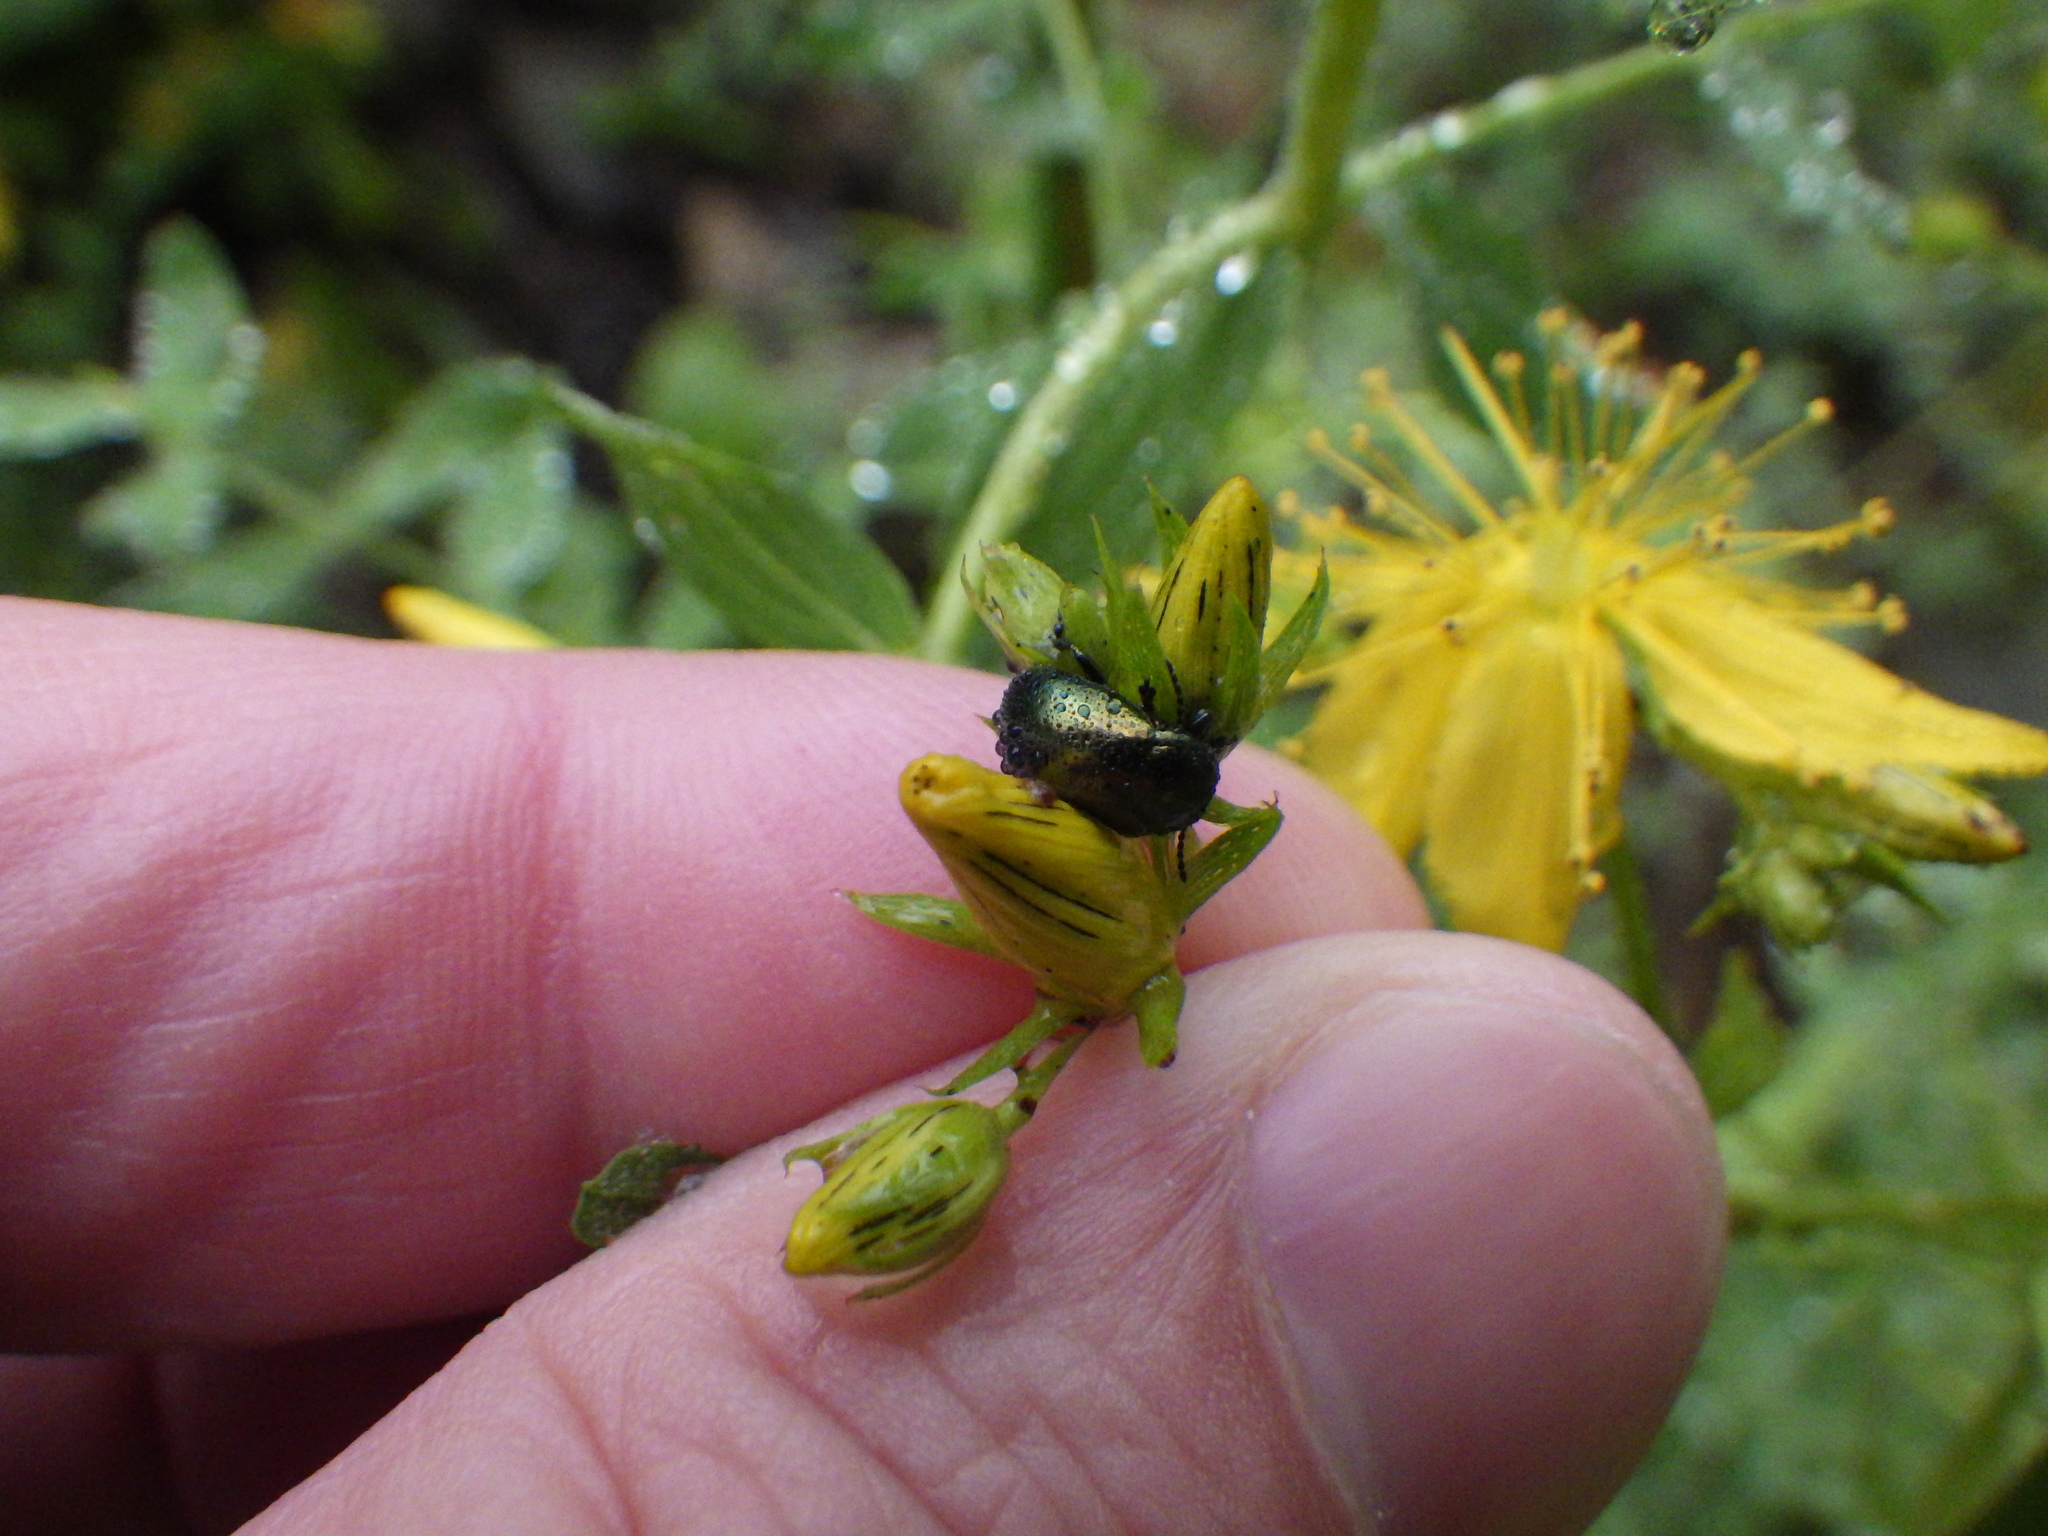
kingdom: Animalia
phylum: Arthropoda
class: Insecta
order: Coleoptera
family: Chrysomelidae
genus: Chrysolina
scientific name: Chrysolina hyperici
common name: St. johnswort beetle
